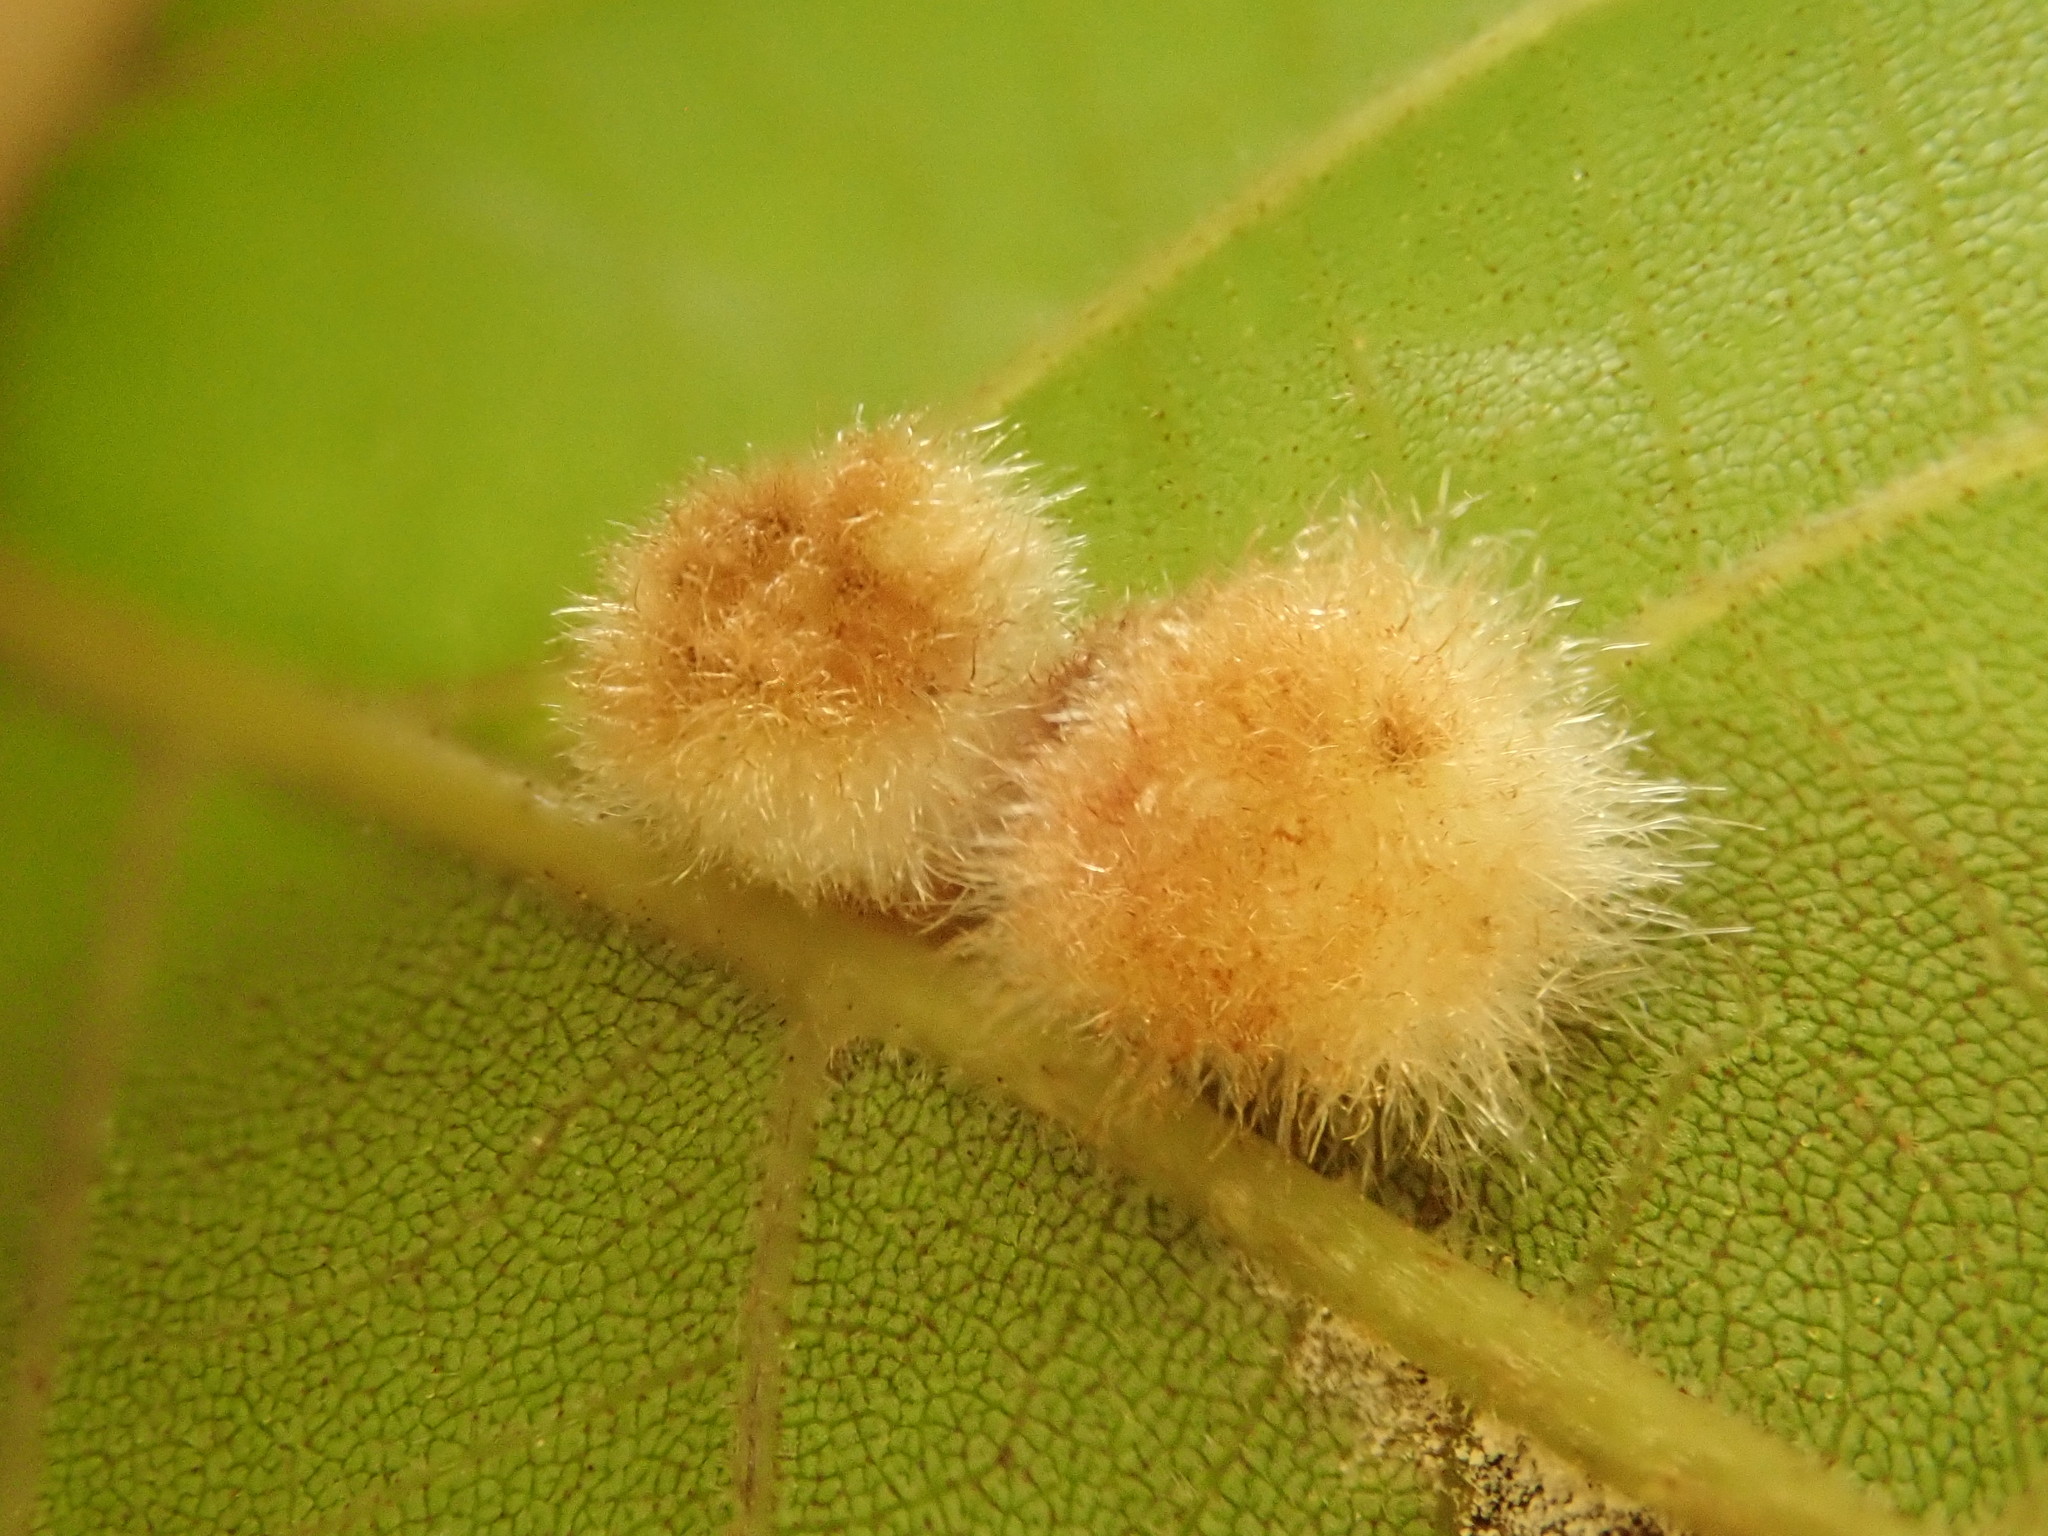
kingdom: Animalia
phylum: Arthropoda
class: Insecta
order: Diptera
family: Cecidomyiidae
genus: Caryomyia
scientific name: Caryomyia aggregata
